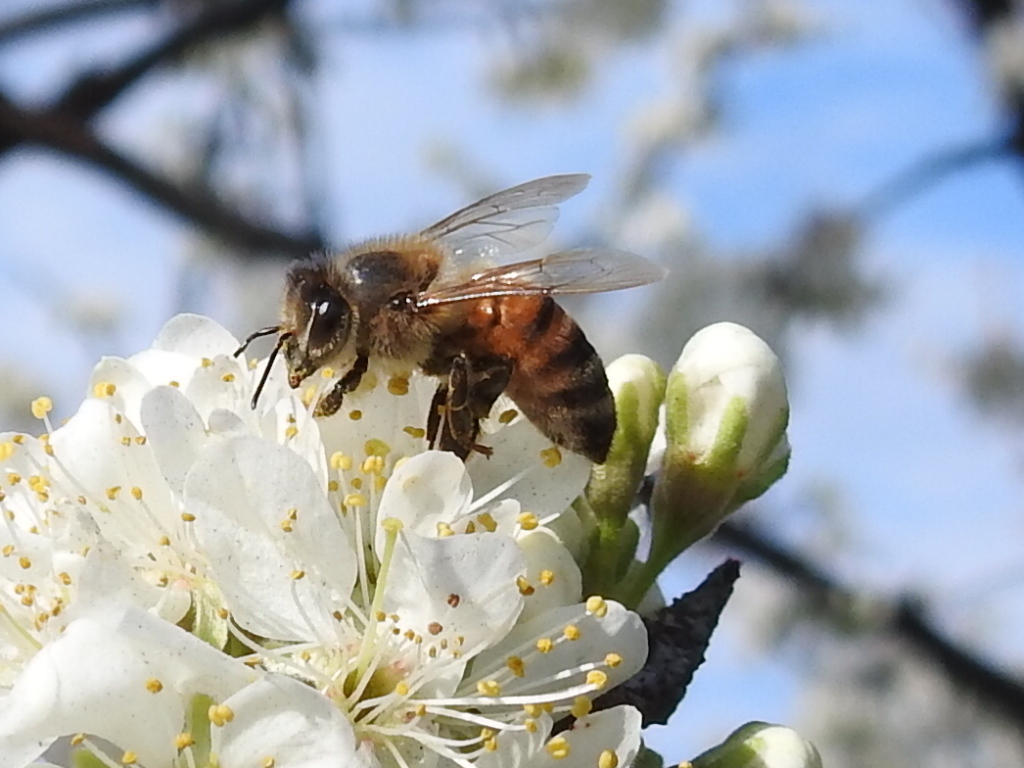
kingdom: Animalia
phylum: Arthropoda
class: Insecta
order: Hymenoptera
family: Apidae
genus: Apis
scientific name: Apis mellifera
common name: Honey bee
